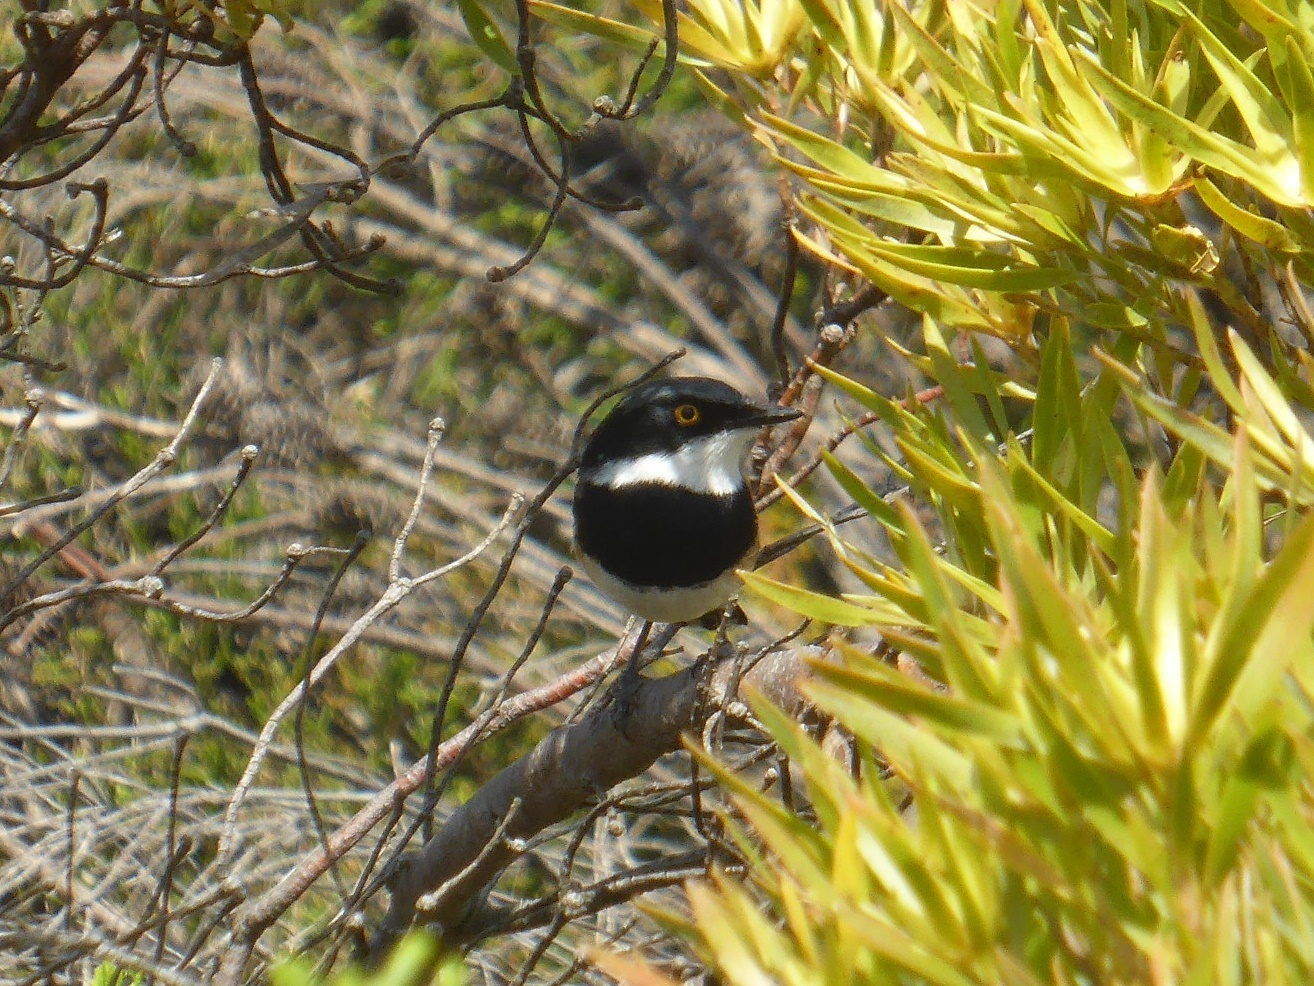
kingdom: Animalia
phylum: Chordata
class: Aves
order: Passeriformes
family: Platysteiridae
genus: Batis
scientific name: Batis capensis
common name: Cape batis
